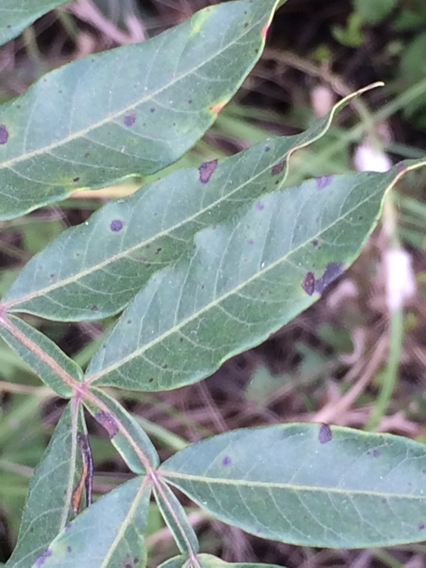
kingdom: Plantae
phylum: Tracheophyta
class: Magnoliopsida
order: Sapindales
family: Anacardiaceae
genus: Rhus
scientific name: Rhus copallina
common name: Shining sumac
